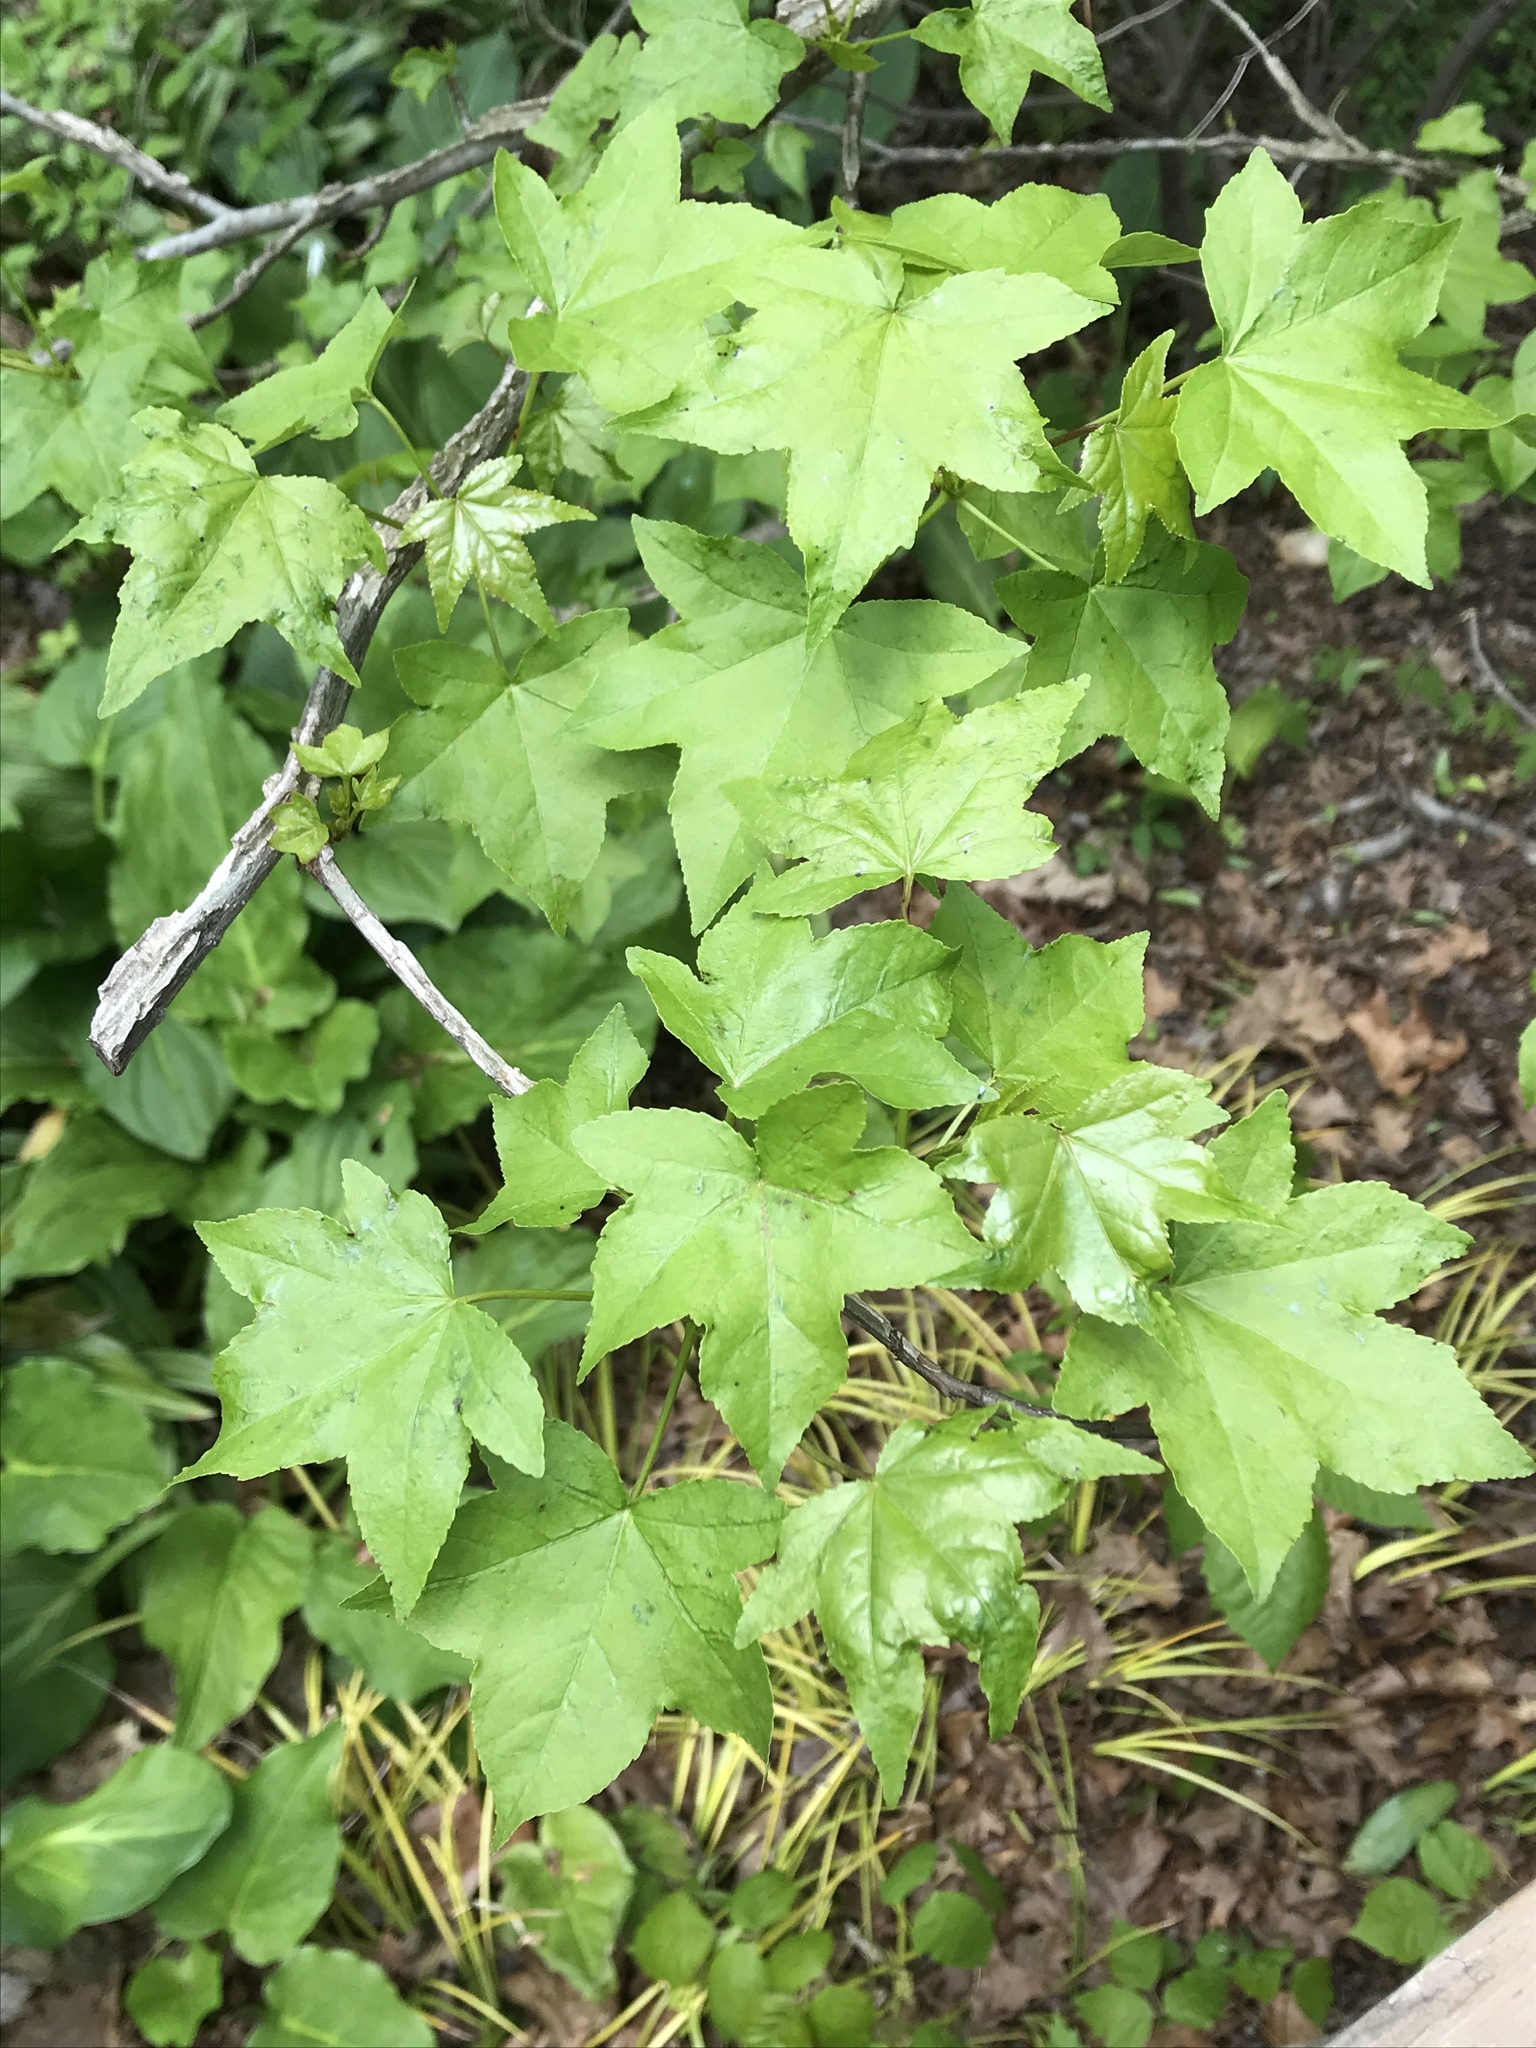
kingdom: Plantae
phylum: Tracheophyta
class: Magnoliopsida
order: Saxifragales
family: Altingiaceae
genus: Liquidambar
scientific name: Liquidambar styraciflua
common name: Sweet gum
